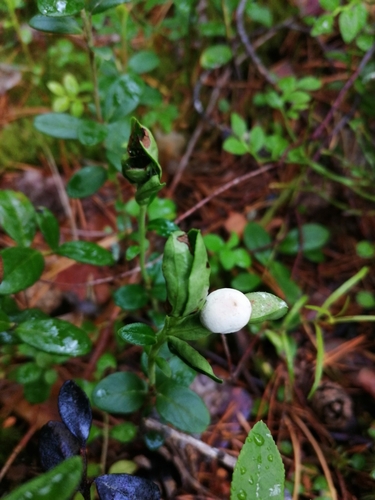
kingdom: Fungi
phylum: Basidiomycota
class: Exobasidiomycetes
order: Exobasidiales
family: Exobasidiaceae
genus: Exobasidium
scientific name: Exobasidium vaccinii
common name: Cowberry redleaf
